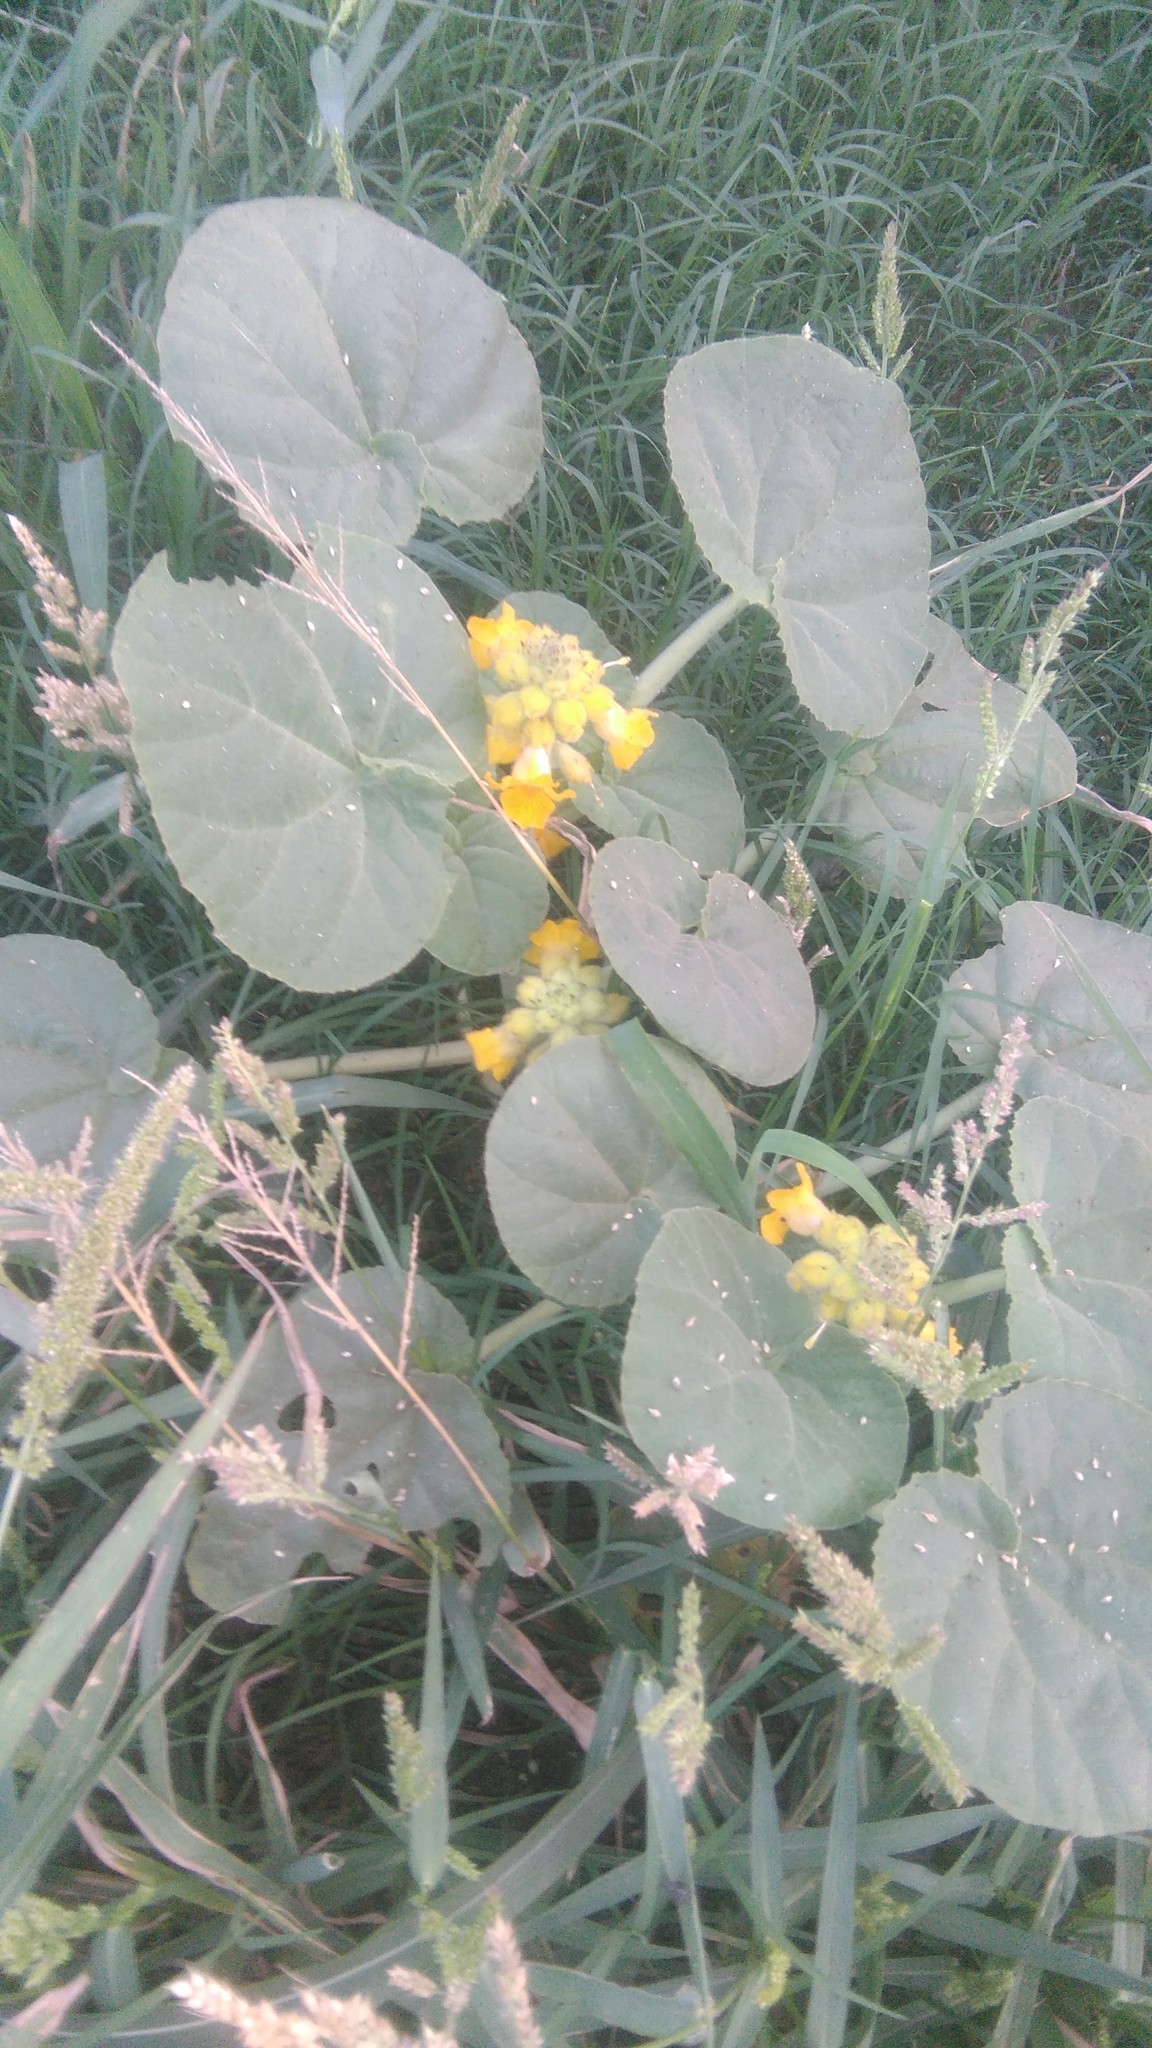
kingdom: Plantae
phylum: Tracheophyta
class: Magnoliopsida
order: Lamiales
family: Martyniaceae
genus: Ibicella
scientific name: Ibicella lutea
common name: Yellow unicorn-plant
